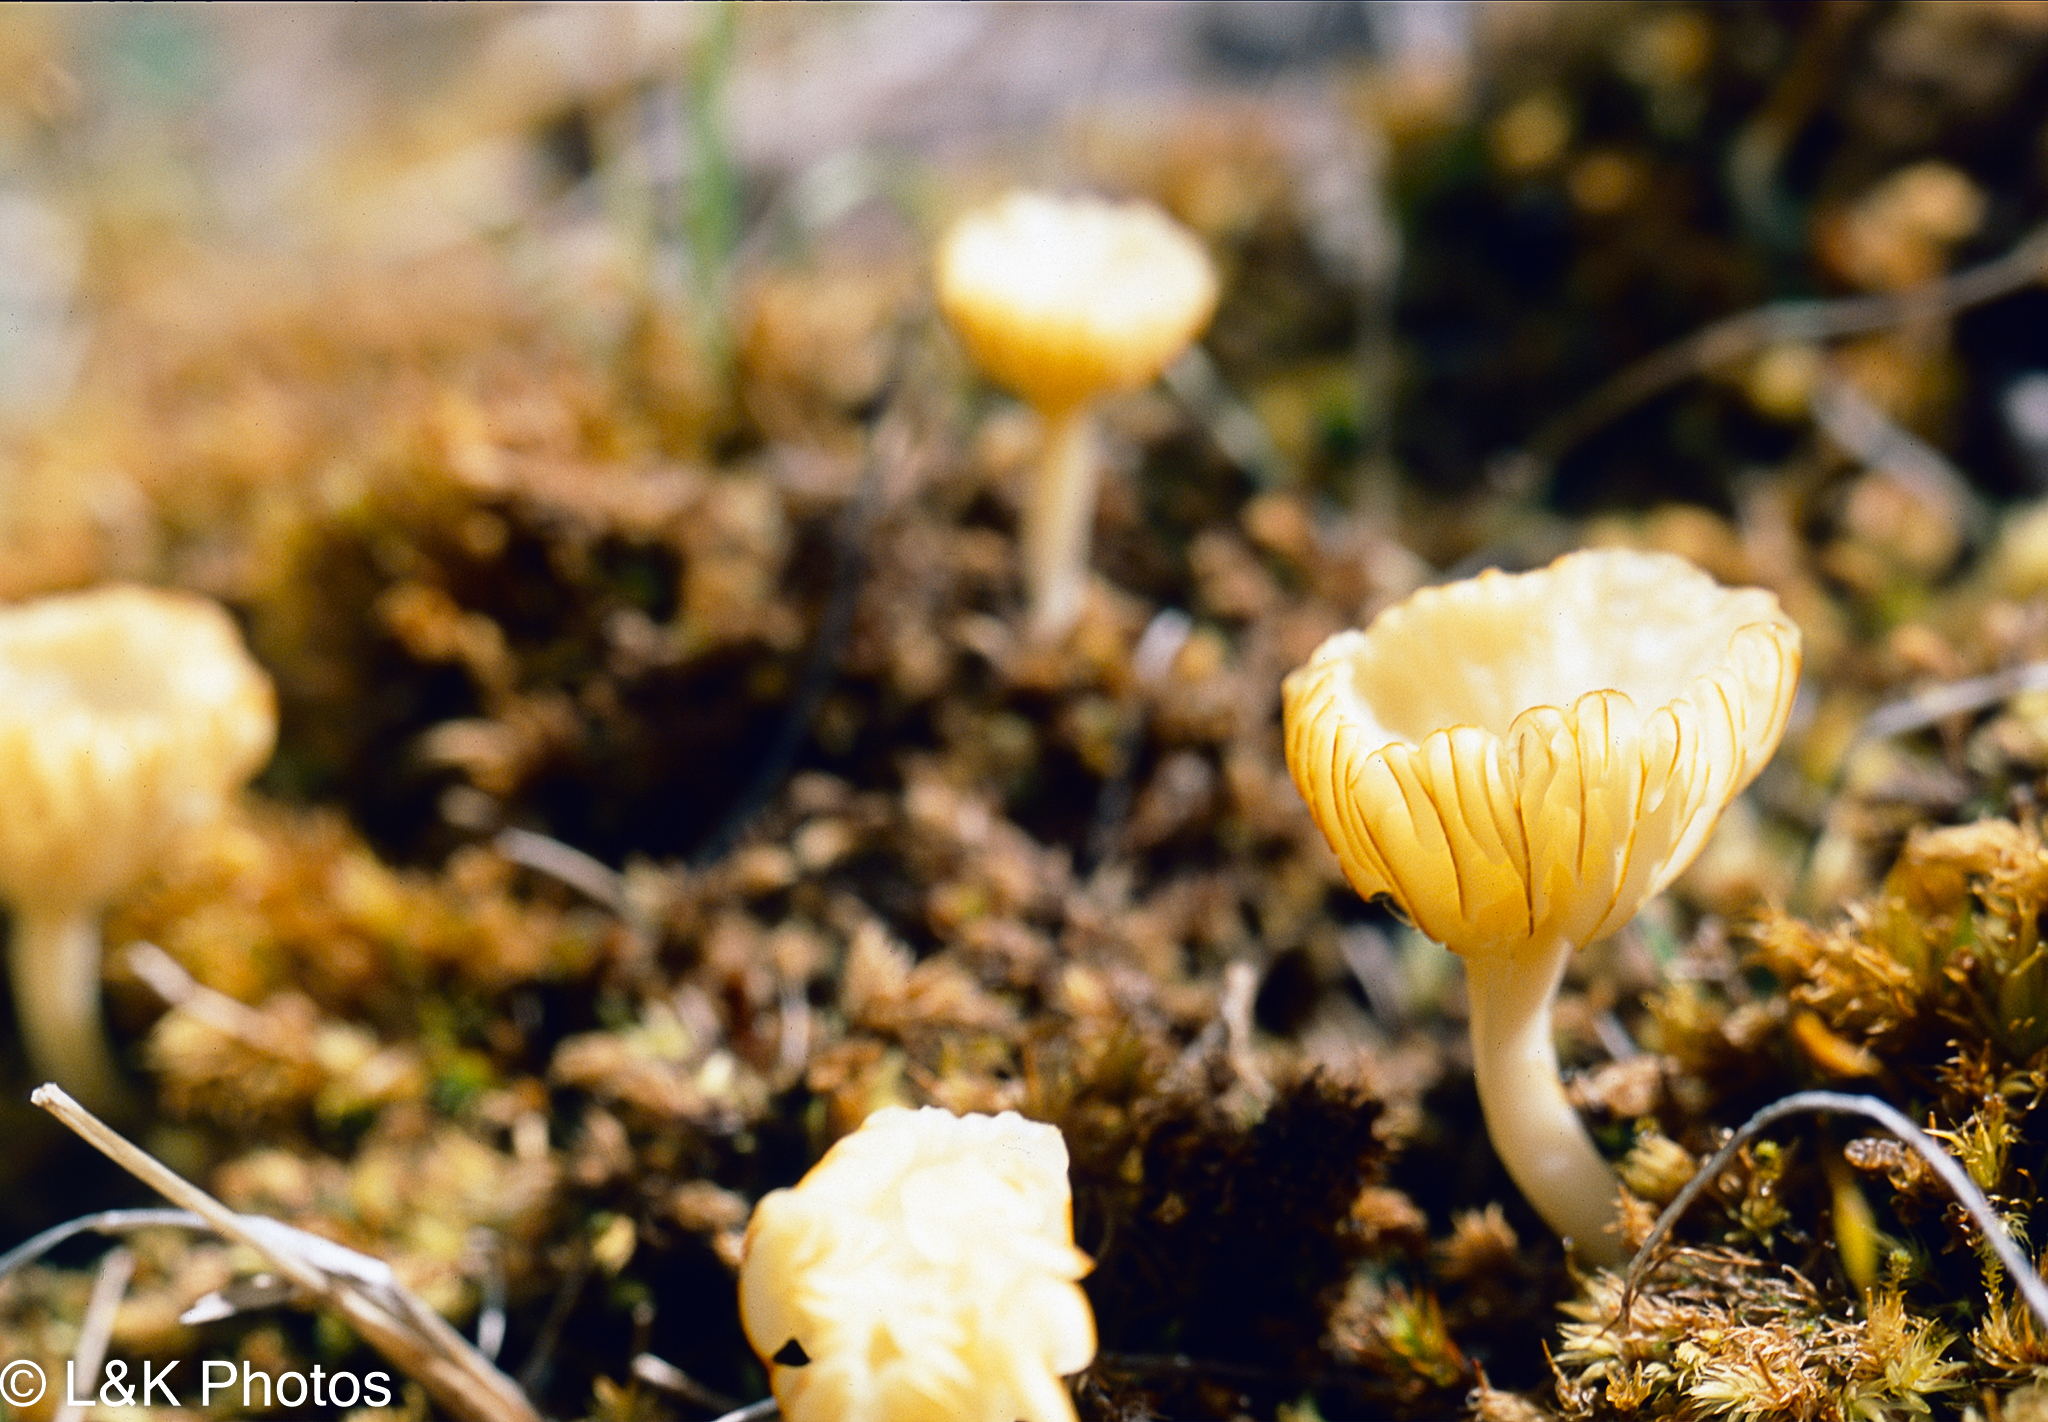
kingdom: Fungi
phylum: Basidiomycota
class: Agaricomycetes
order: Agaricales
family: Hygrophoraceae
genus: Lichenomphalia
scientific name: Lichenomphalia
